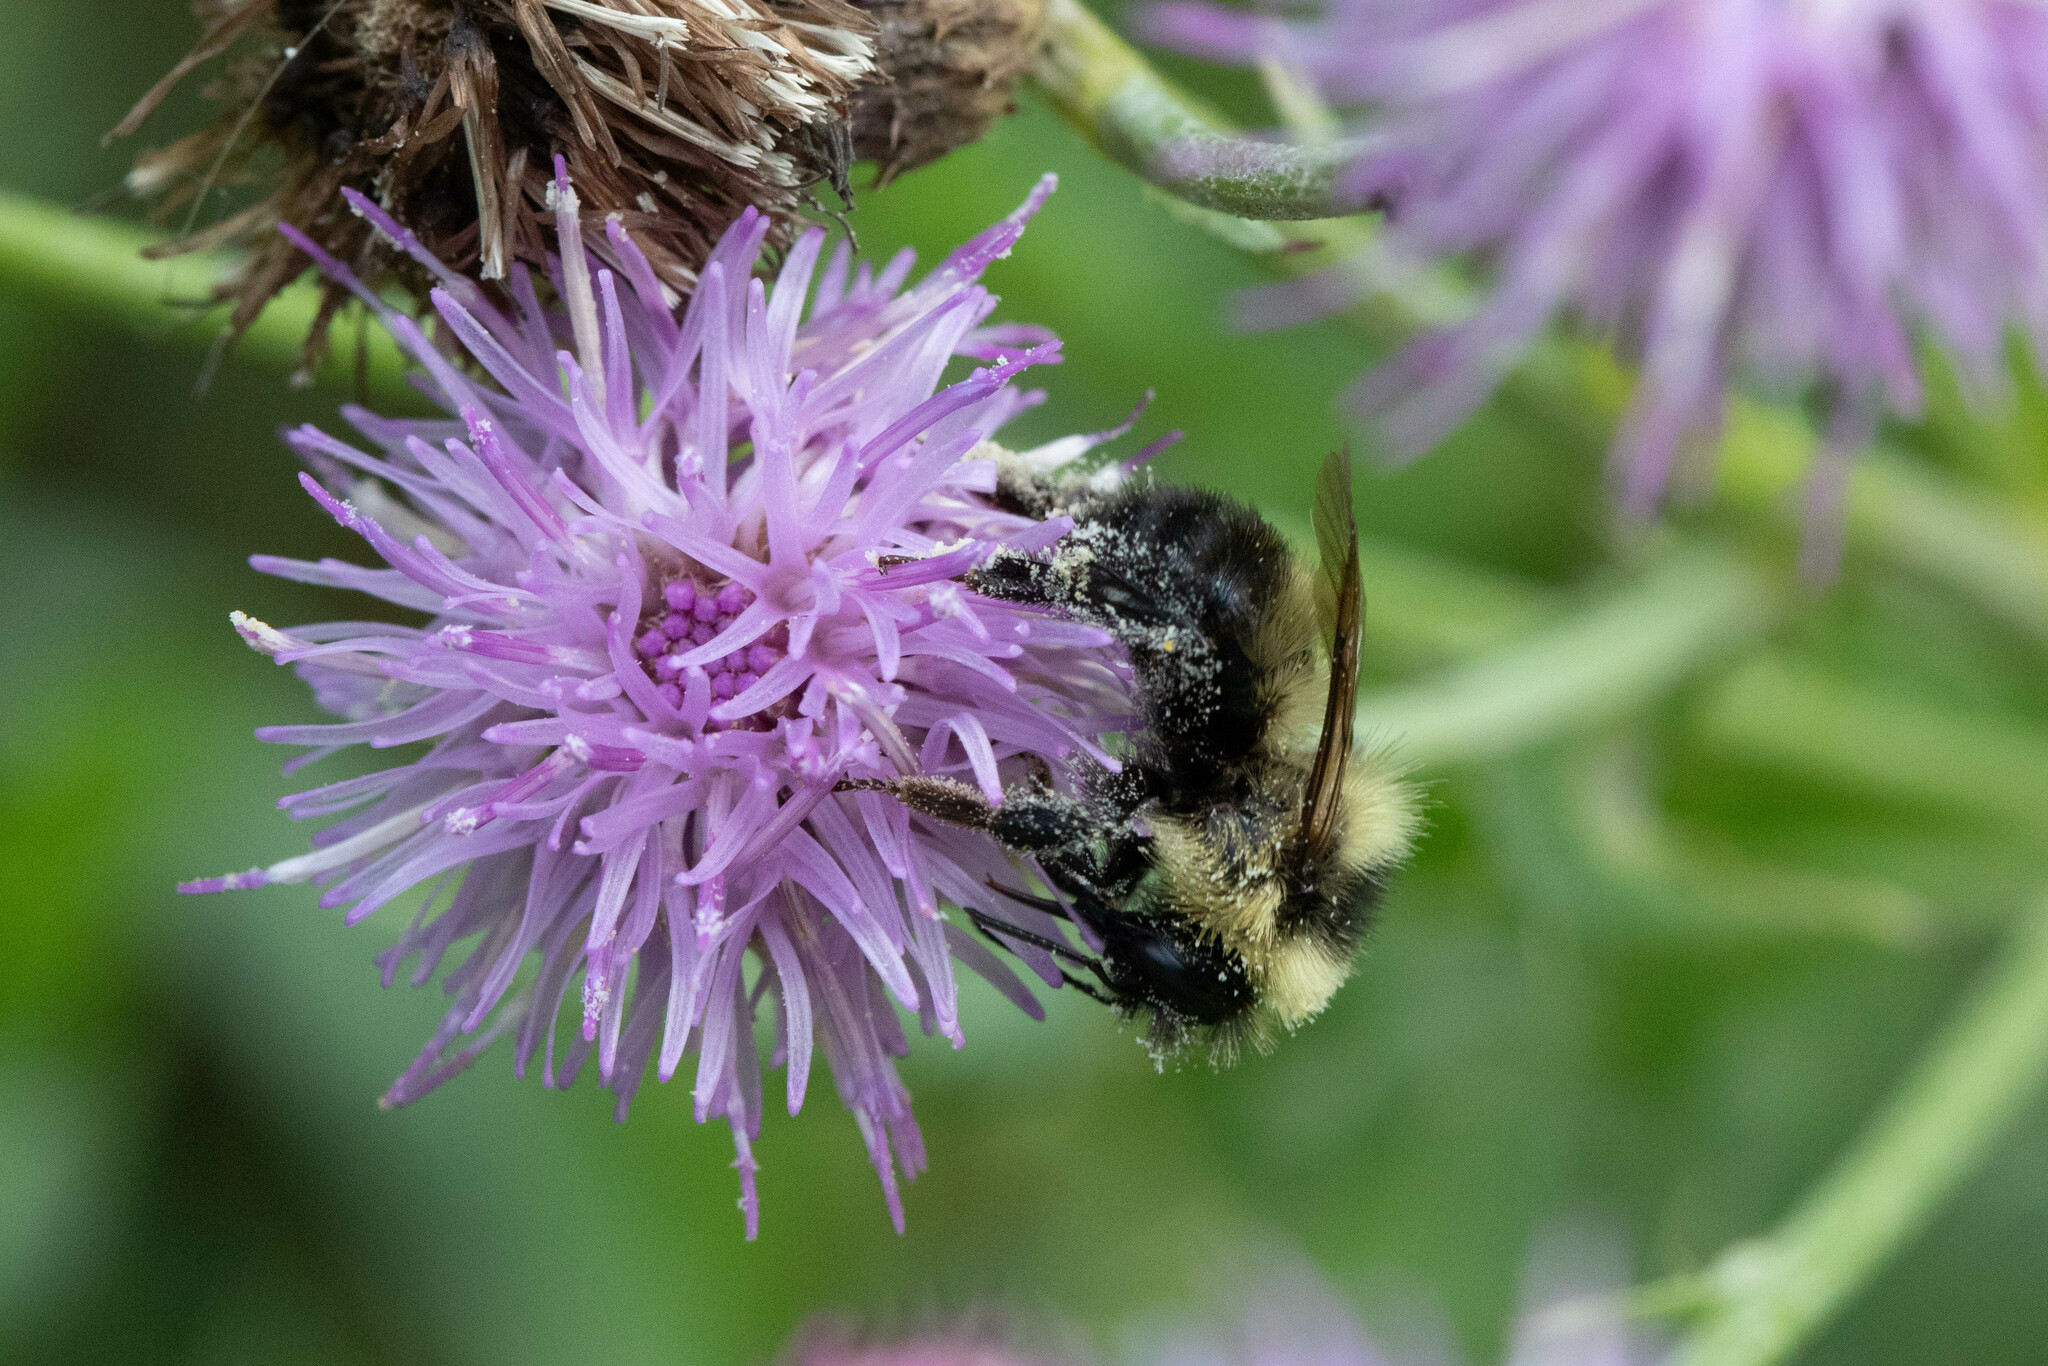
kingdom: Animalia
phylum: Arthropoda
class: Insecta
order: Hymenoptera
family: Apidae
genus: Bombus
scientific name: Bombus rufocinctus
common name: Red-belted bumble bee
